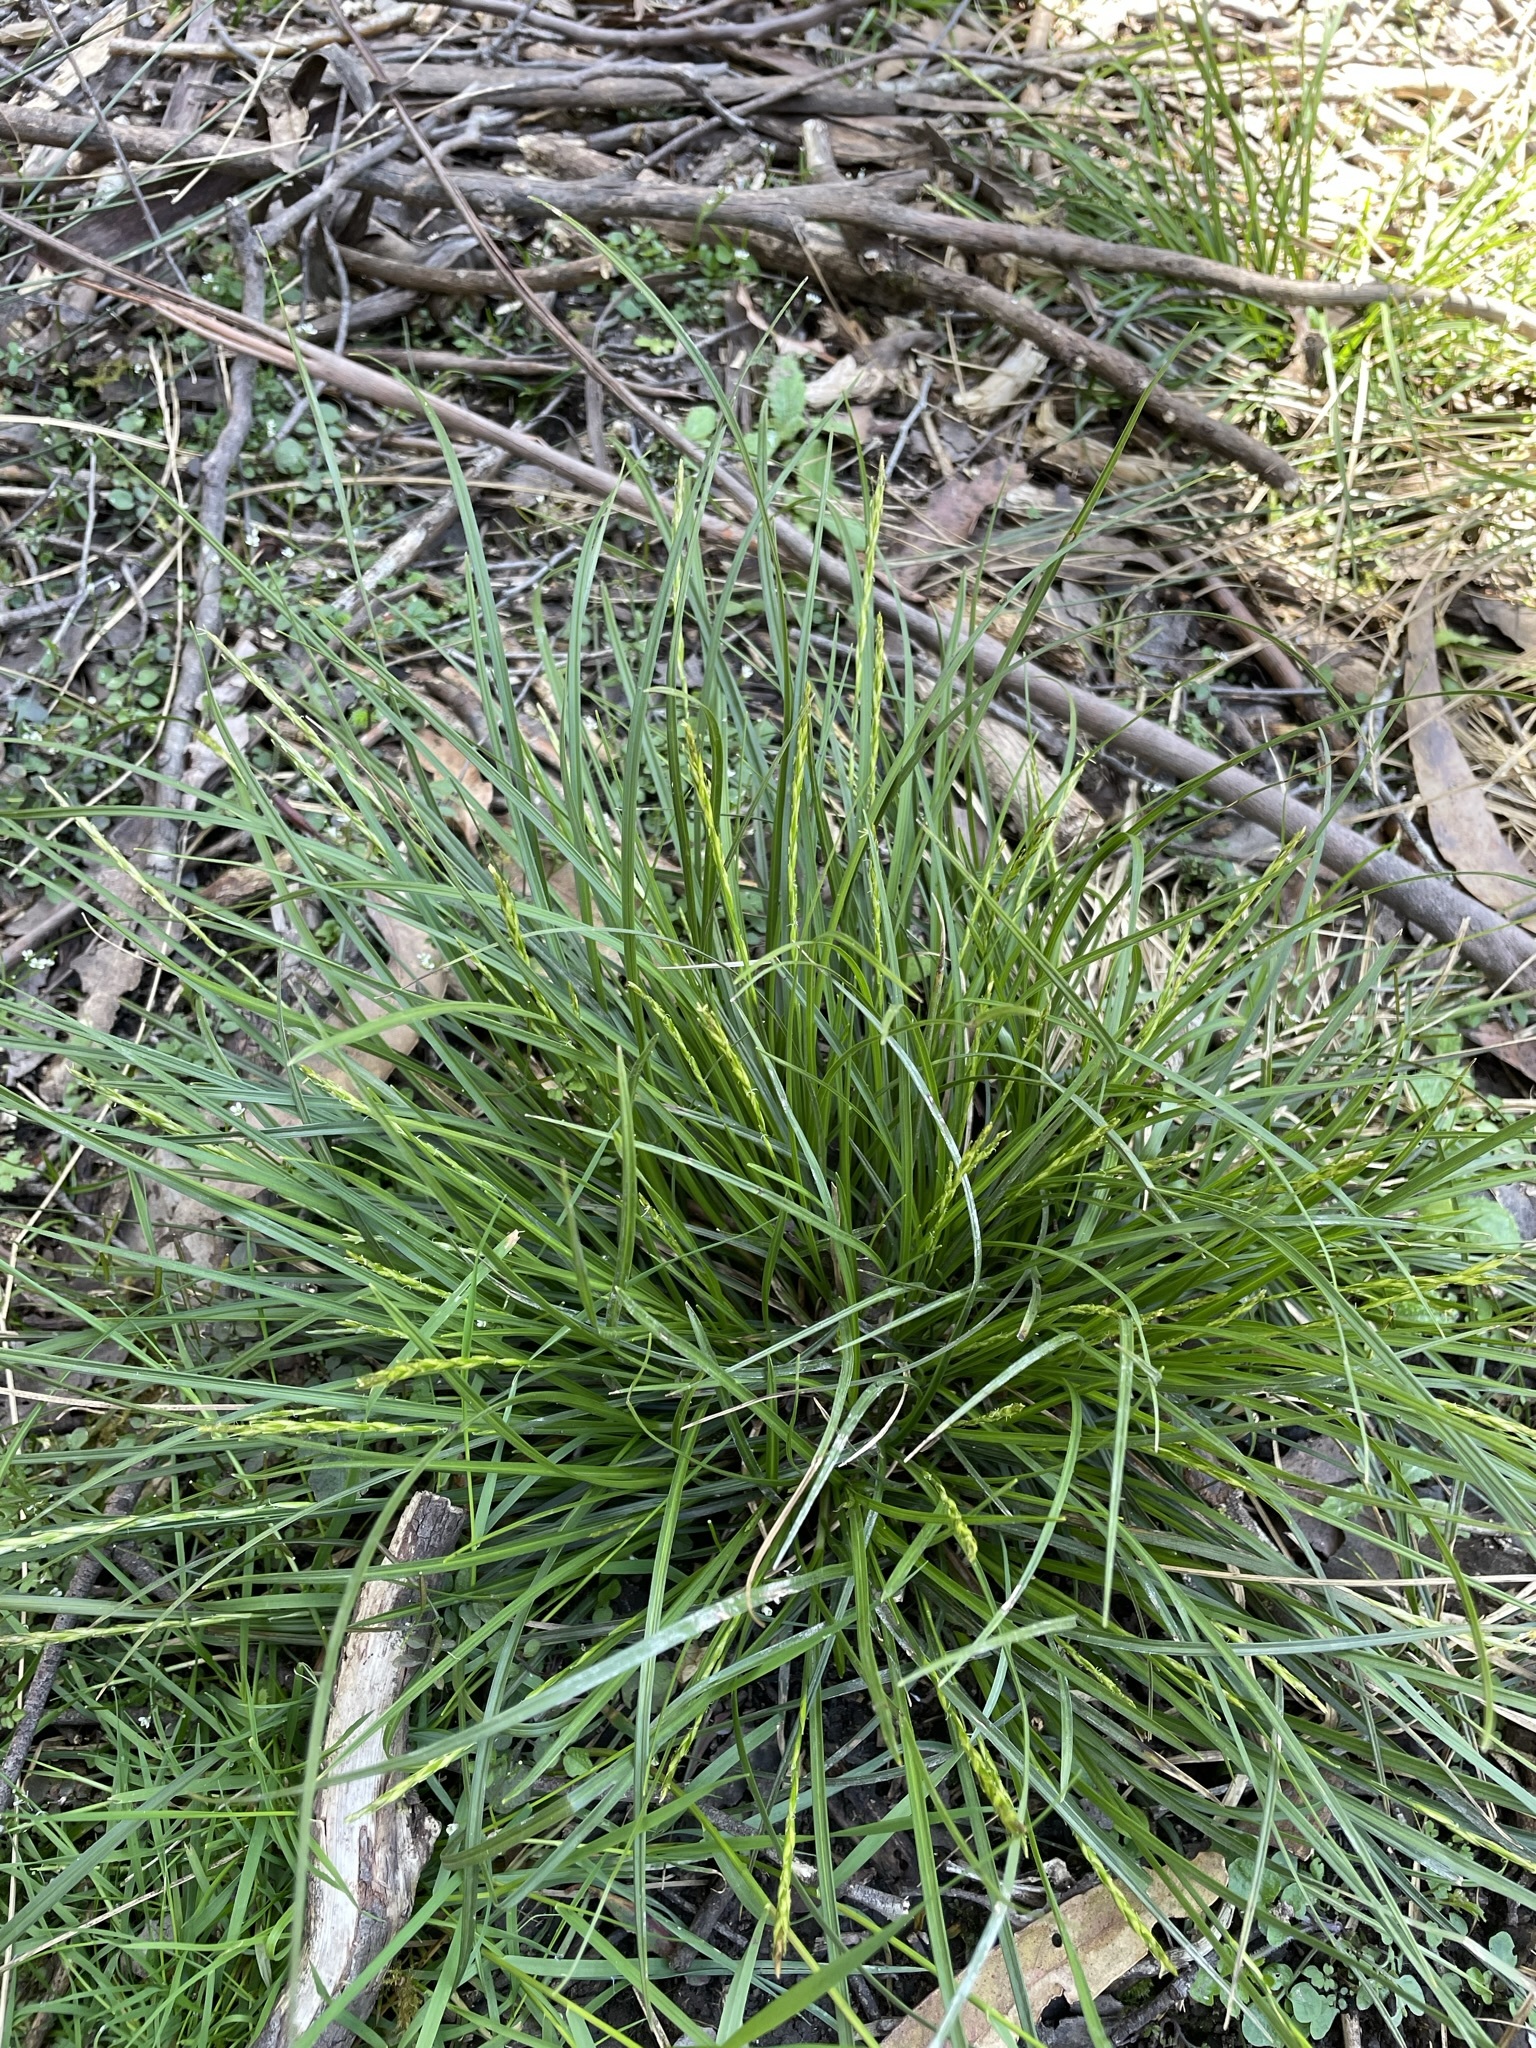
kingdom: Plantae
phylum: Tracheophyta
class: Liliopsida
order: Poales
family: Cyperaceae
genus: Carex
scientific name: Carex umbricola
